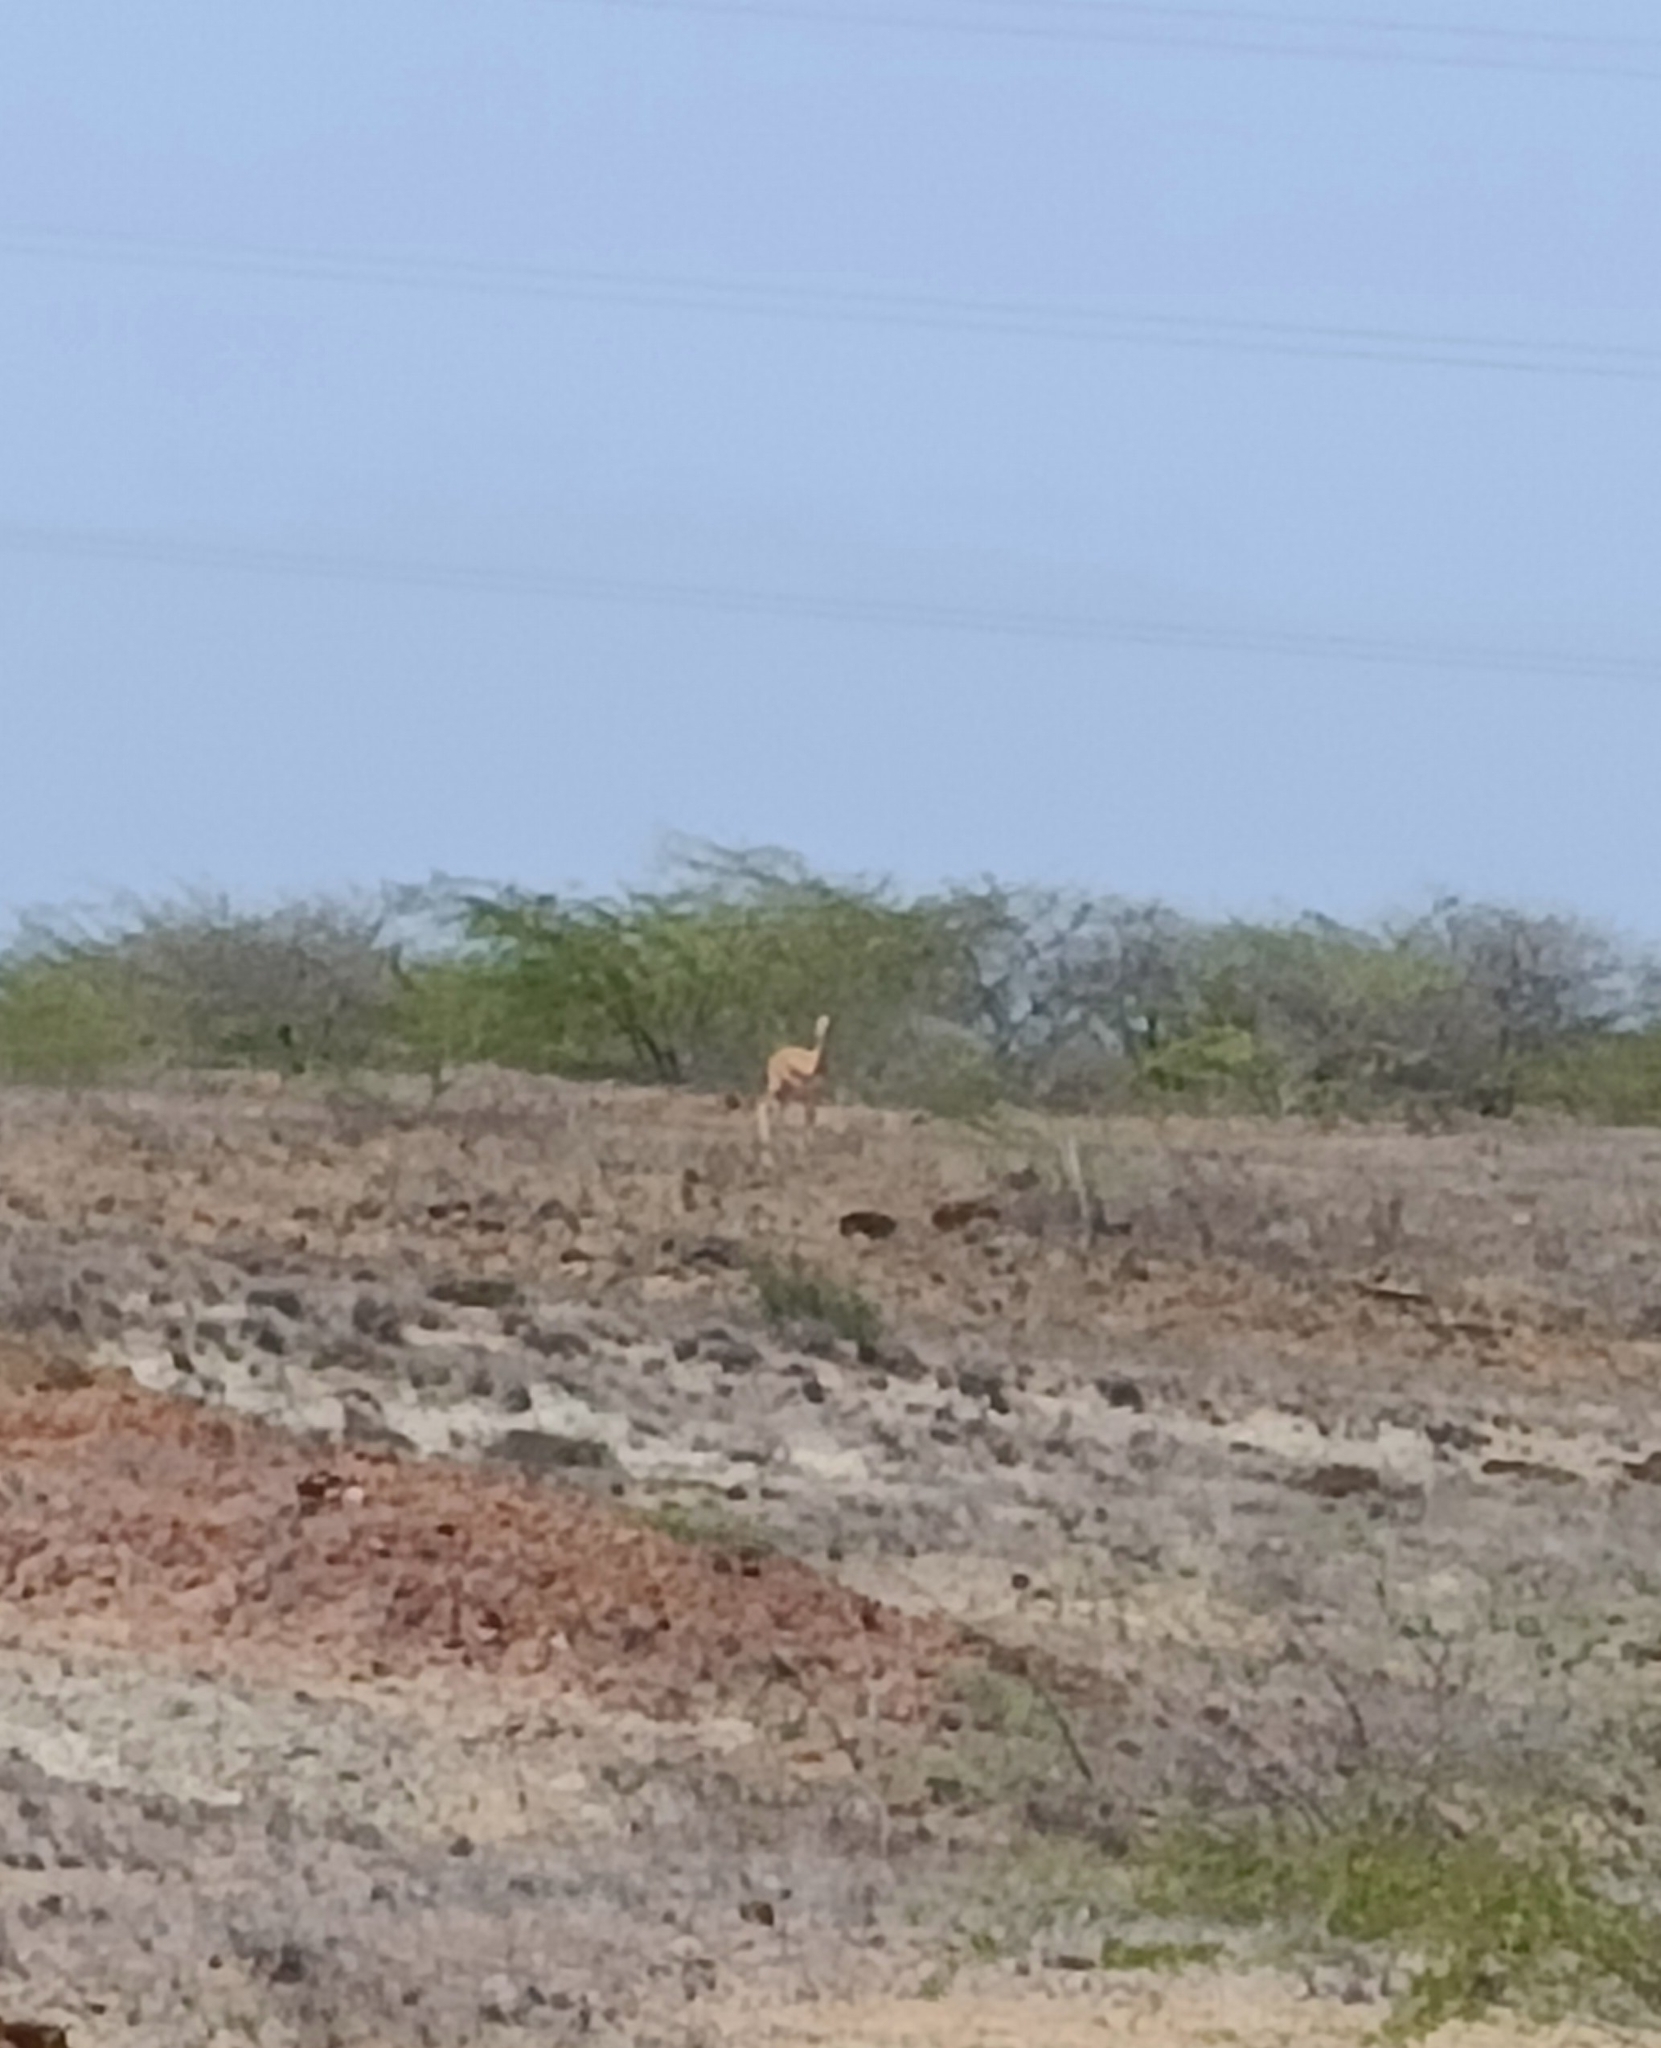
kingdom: Animalia
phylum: Chordata
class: Mammalia
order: Artiodactyla
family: Bovidae
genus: Gazella
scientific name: Gazella bennettii
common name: Indian gazelle
